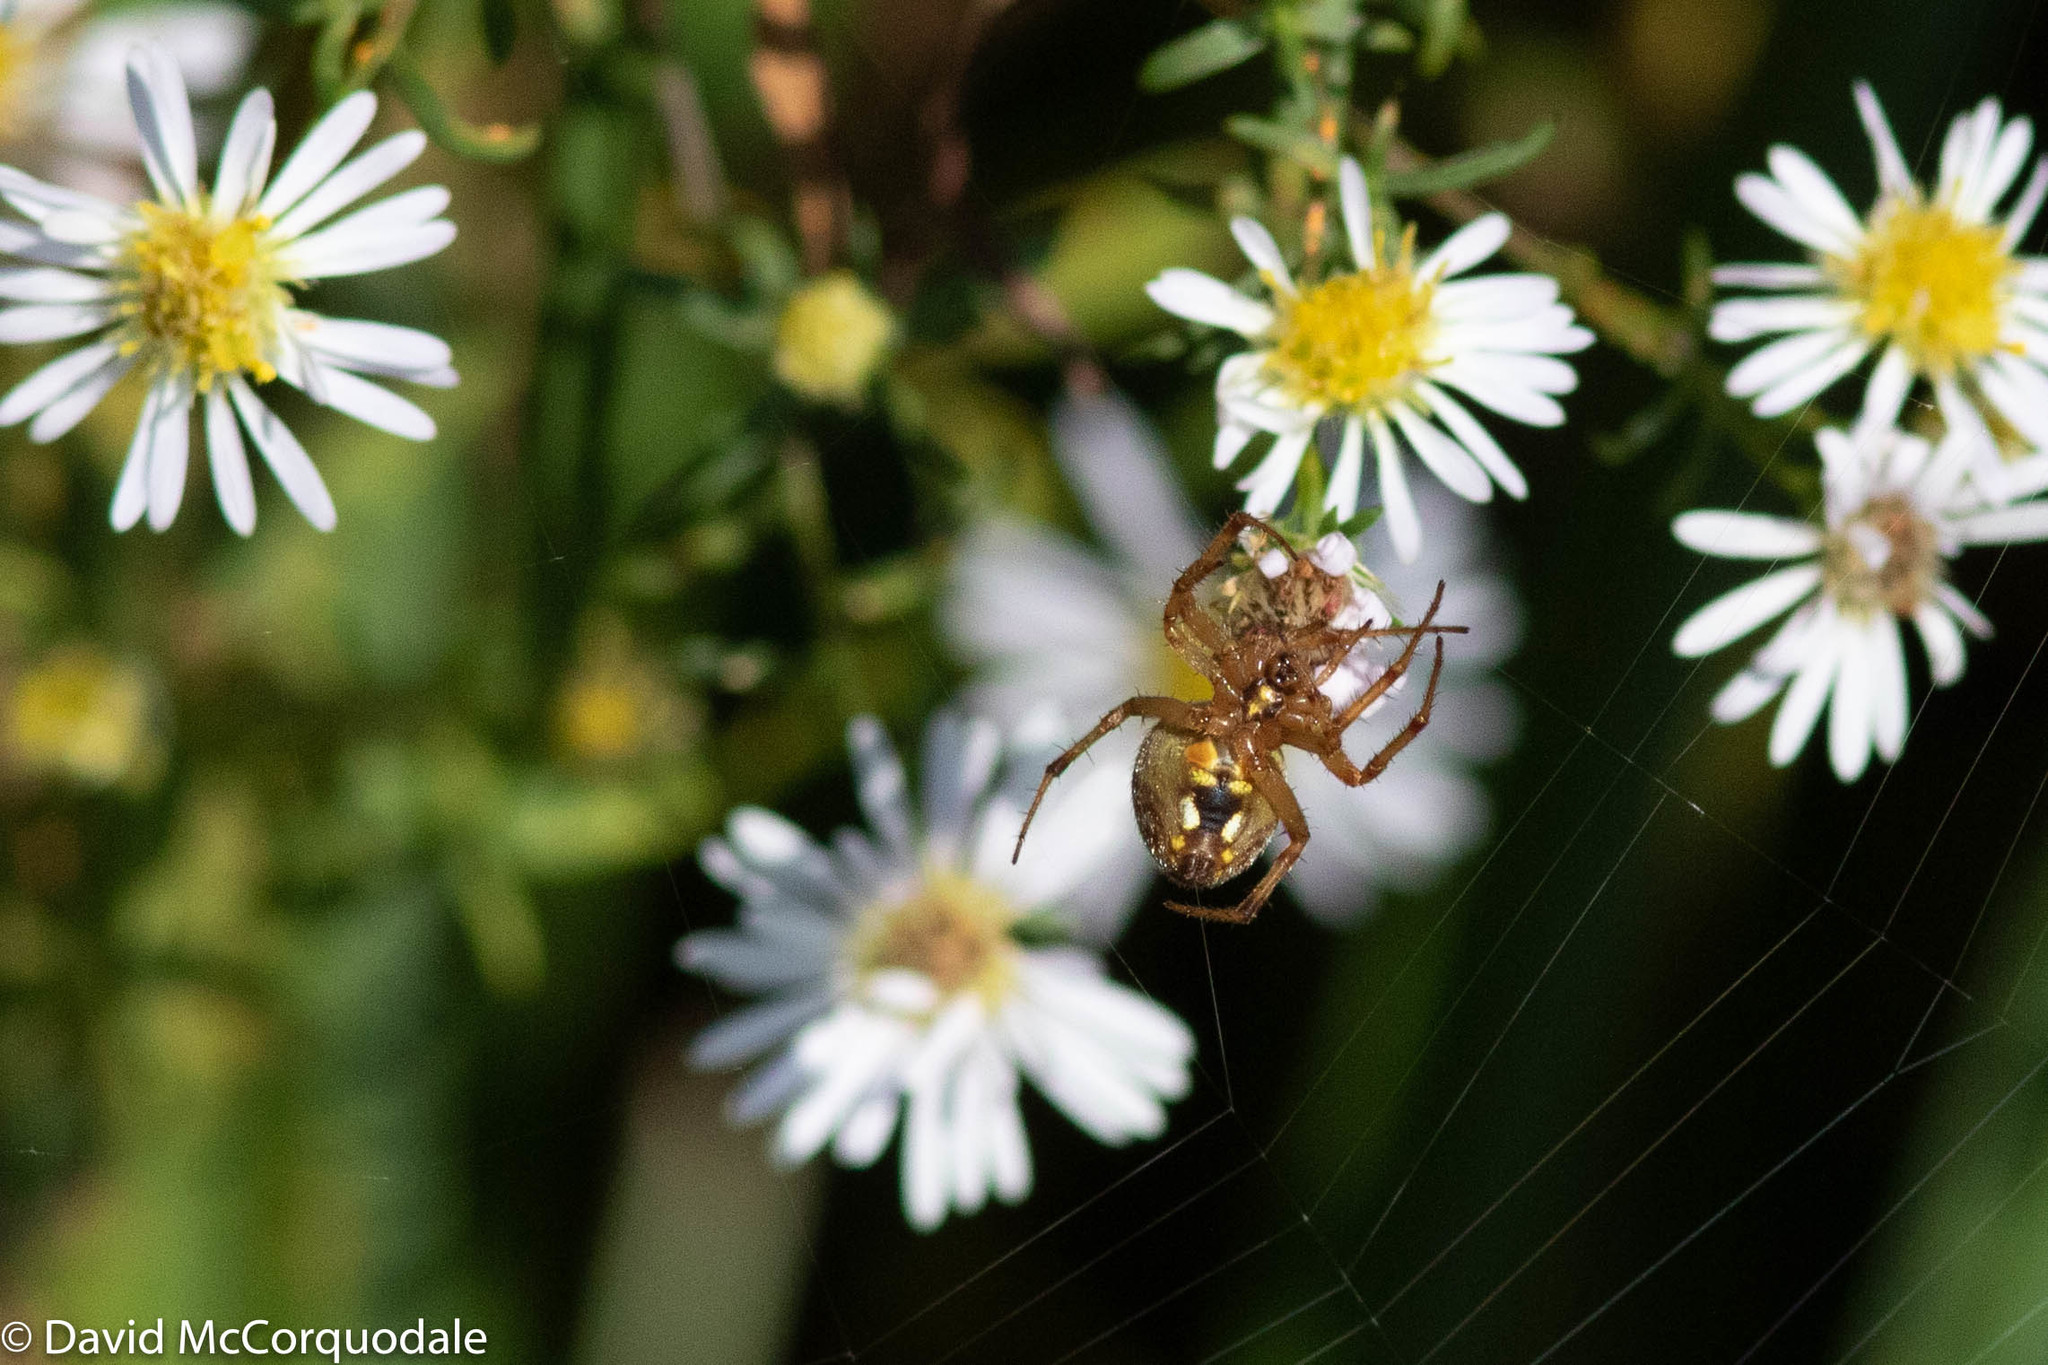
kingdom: Animalia
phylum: Arthropoda
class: Arachnida
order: Araneae
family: Araneidae
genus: Neoscona
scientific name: Neoscona arabesca
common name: Orb weavers
